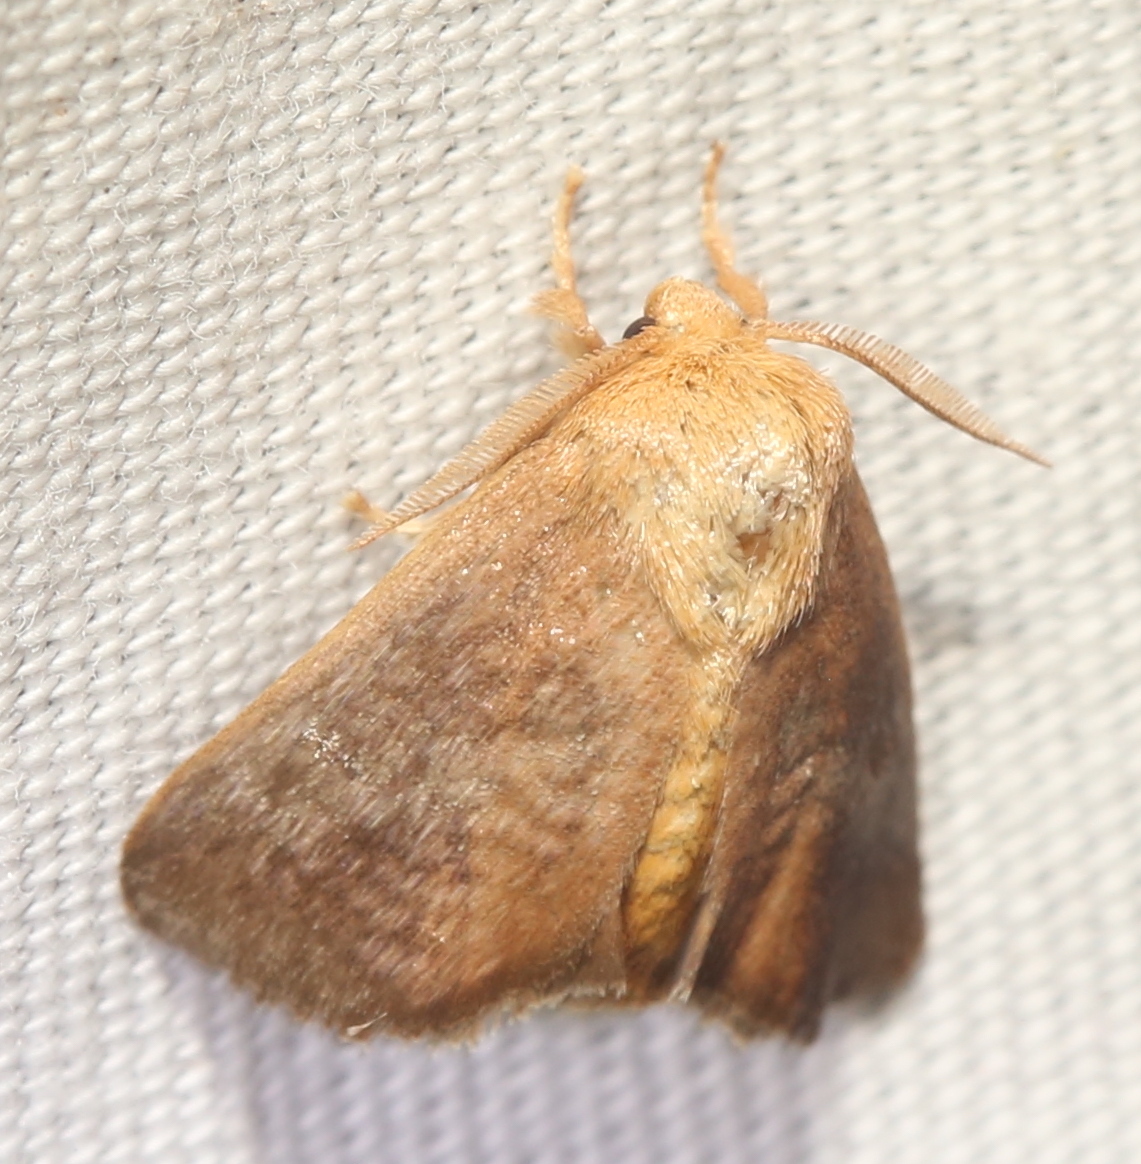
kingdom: Animalia
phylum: Arthropoda
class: Insecta
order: Lepidoptera
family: Limacodidae
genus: Isa
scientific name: Isa textula
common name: Crowned slug moth
